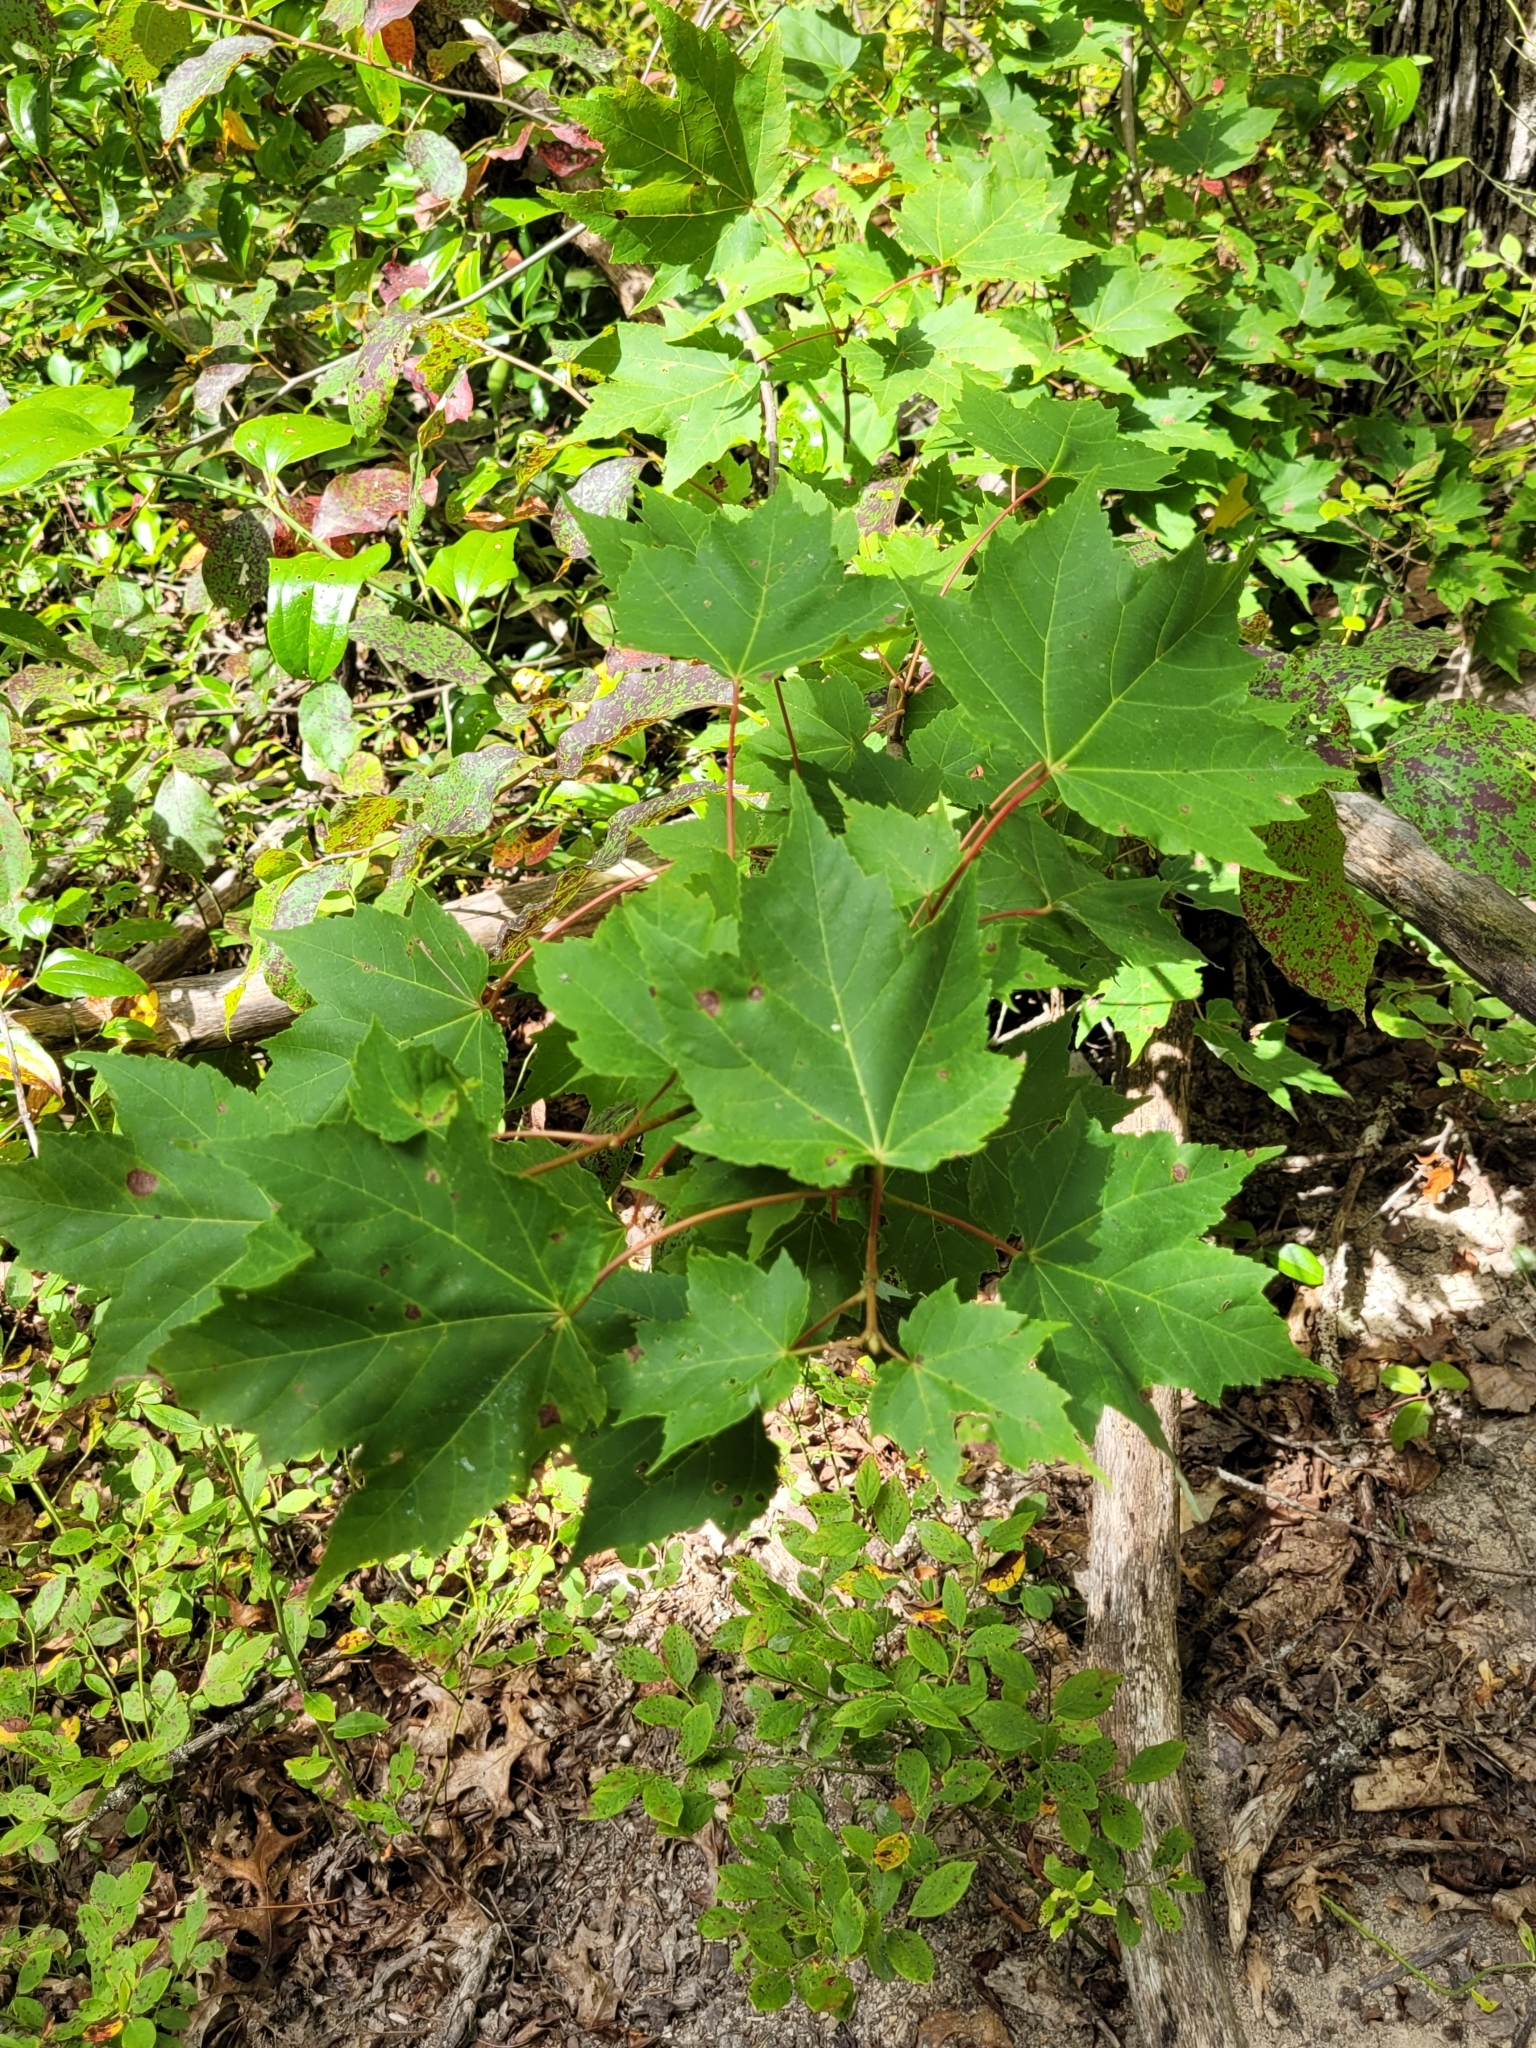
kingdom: Plantae
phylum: Tracheophyta
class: Magnoliopsida
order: Sapindales
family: Sapindaceae
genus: Acer
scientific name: Acer rubrum
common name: Red maple
